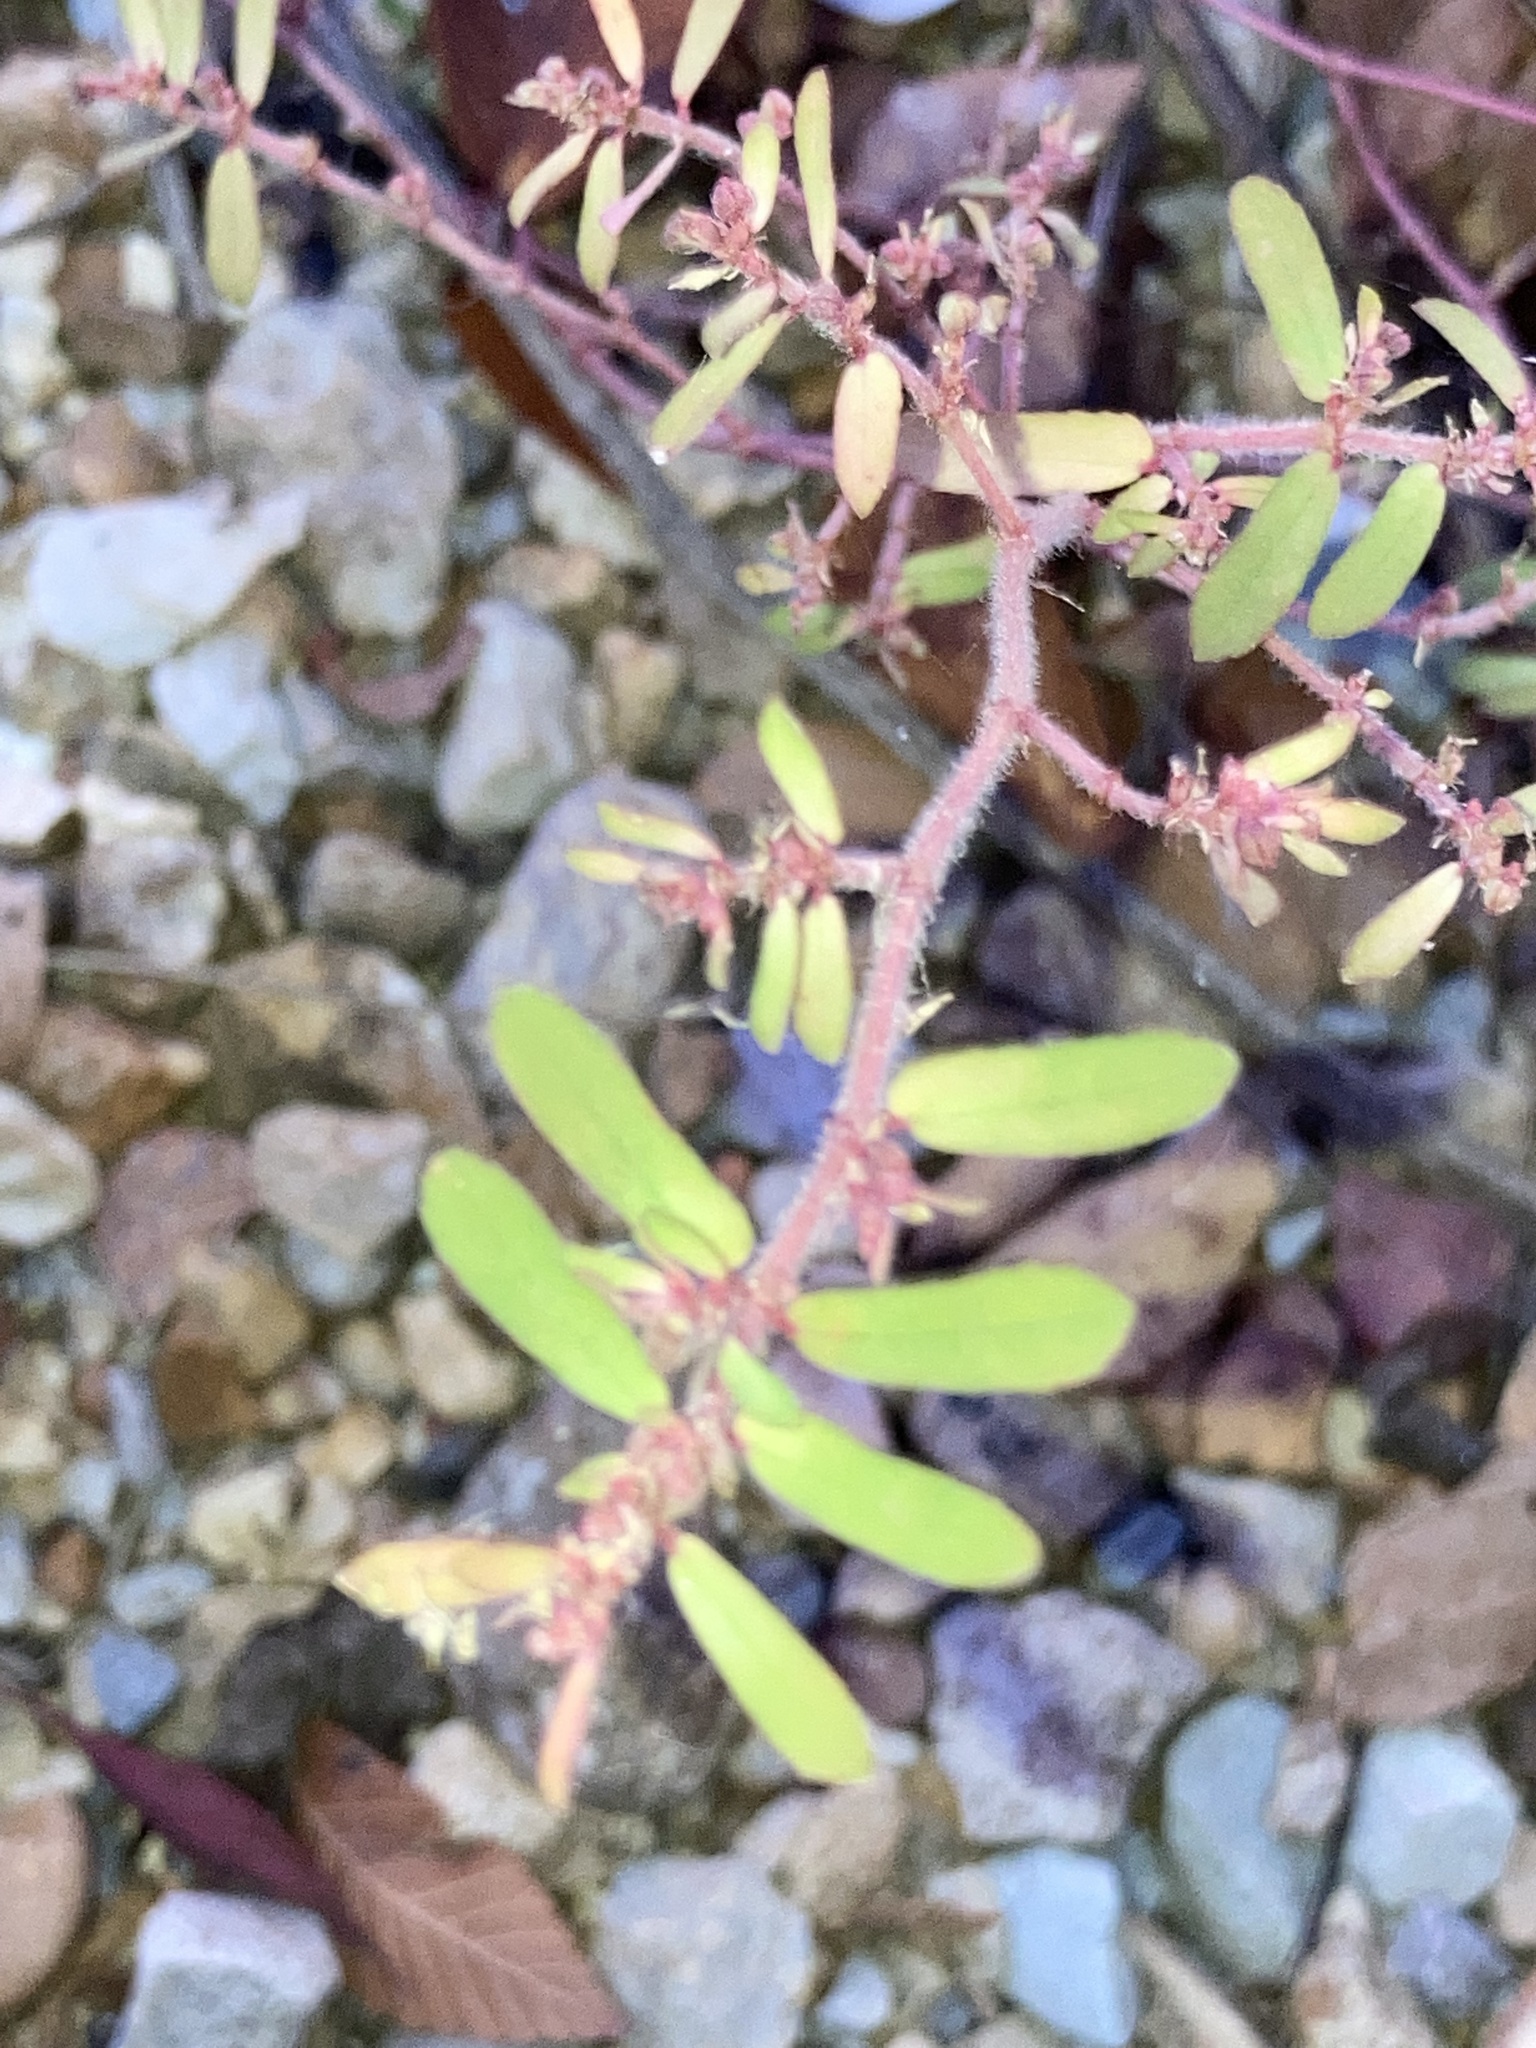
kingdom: Plantae
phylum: Tracheophyta
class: Magnoliopsida
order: Malpighiales
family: Euphorbiaceae
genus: Euphorbia
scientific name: Euphorbia maculata
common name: Spotted spurge
